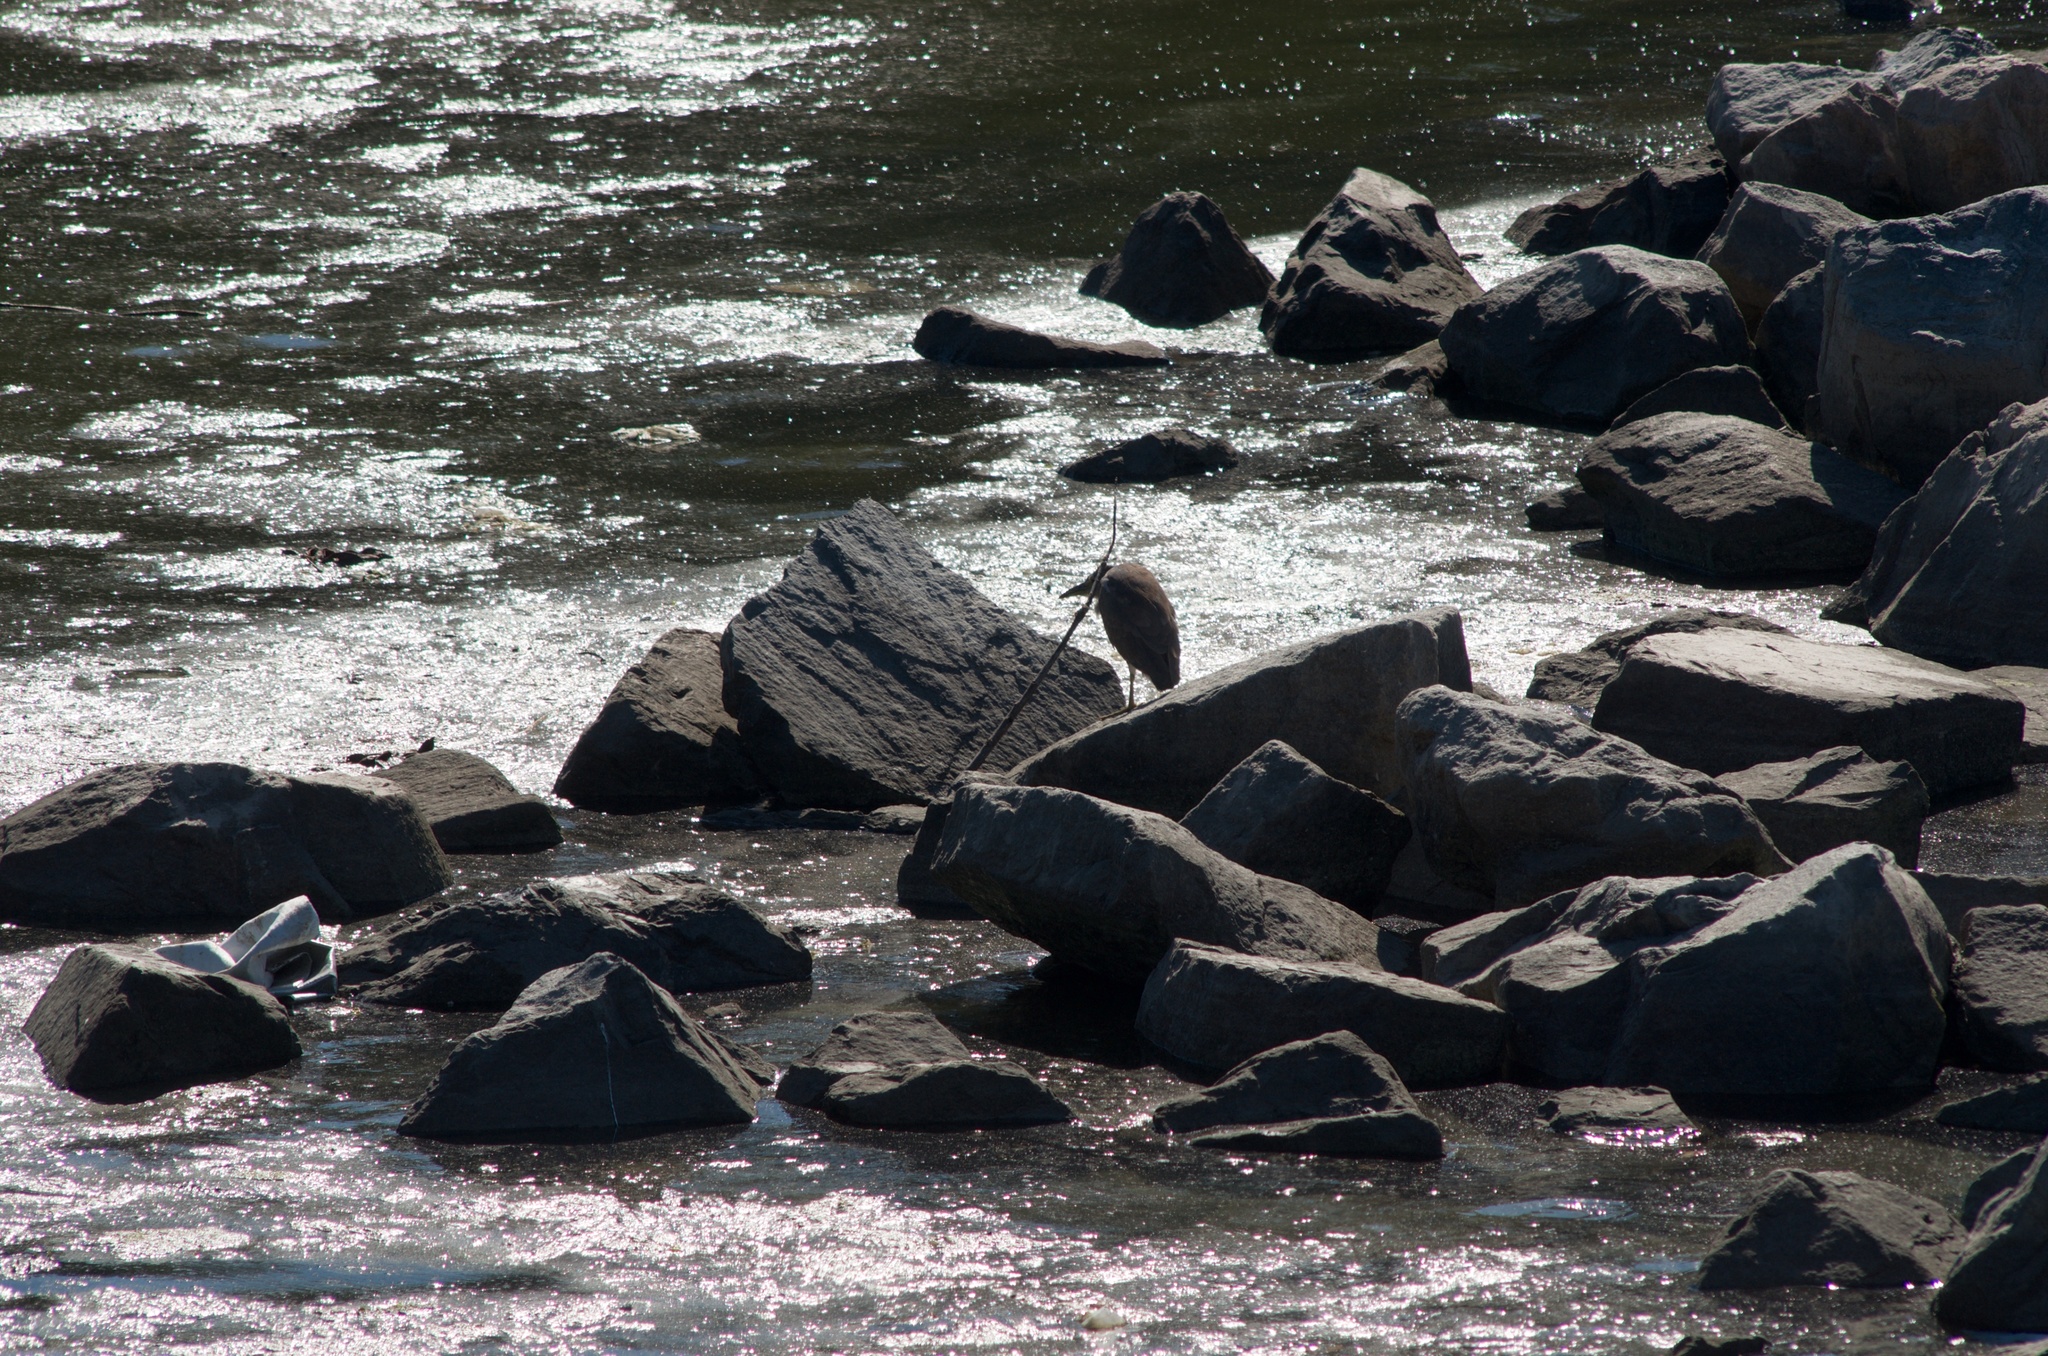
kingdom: Animalia
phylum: Chordata
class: Aves
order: Pelecaniformes
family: Ardeidae
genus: Nycticorax
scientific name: Nycticorax nycticorax
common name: Black-crowned night heron
